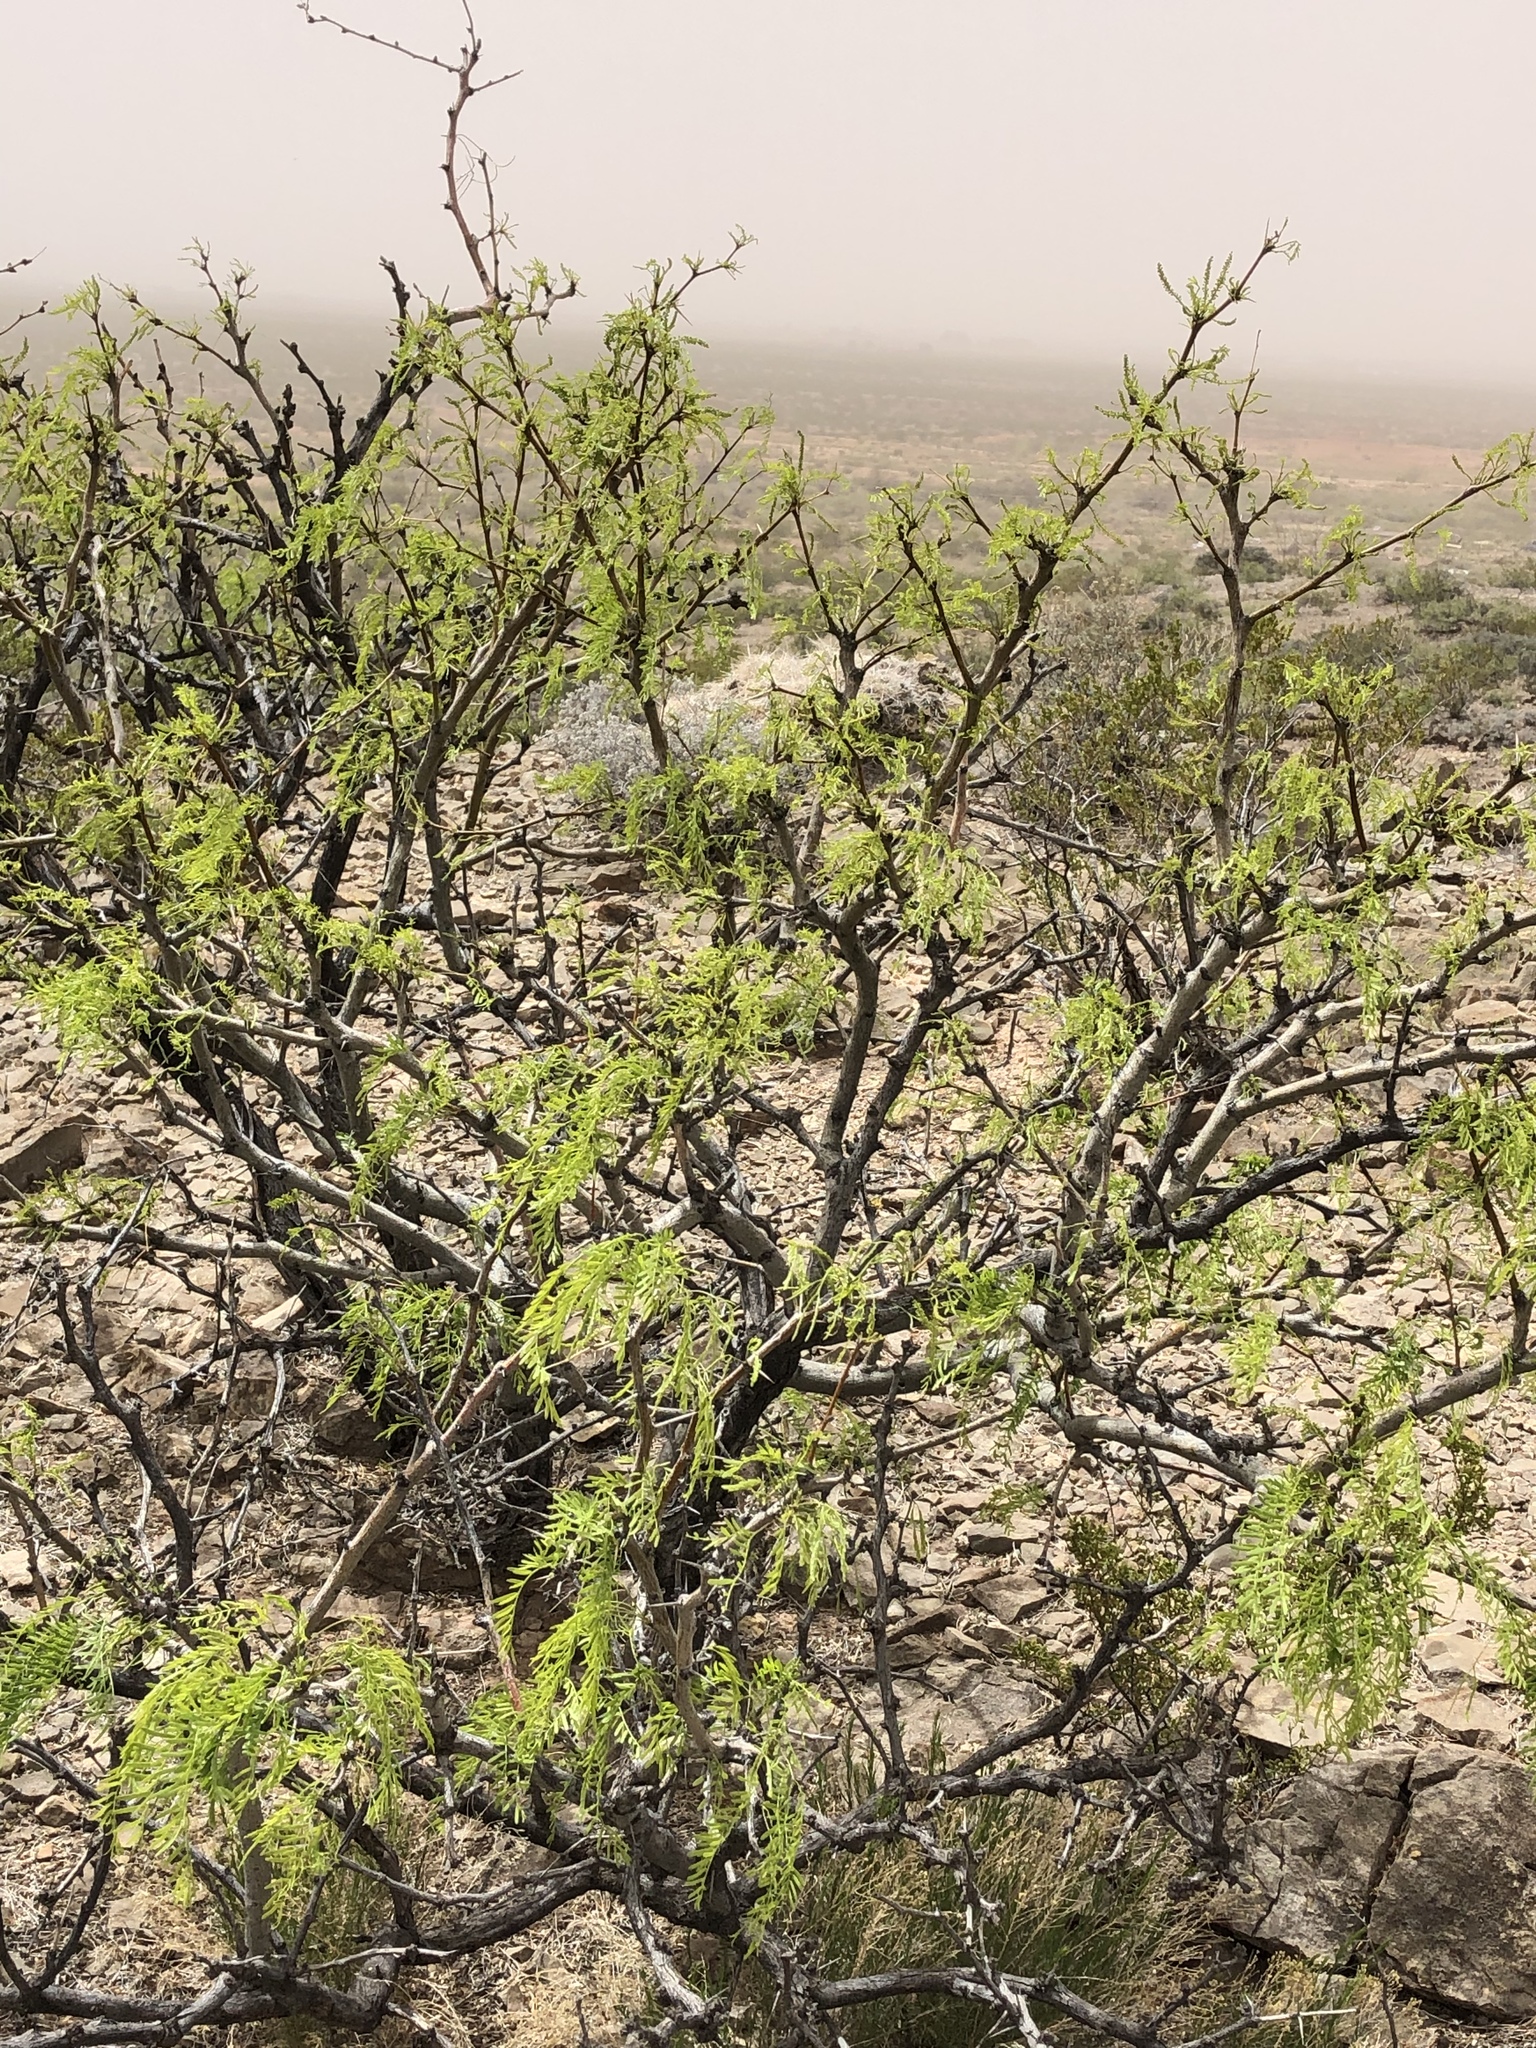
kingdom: Plantae
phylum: Tracheophyta
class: Magnoliopsida
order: Fabales
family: Fabaceae
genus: Prosopis
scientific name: Prosopis glandulosa
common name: Honey mesquite
